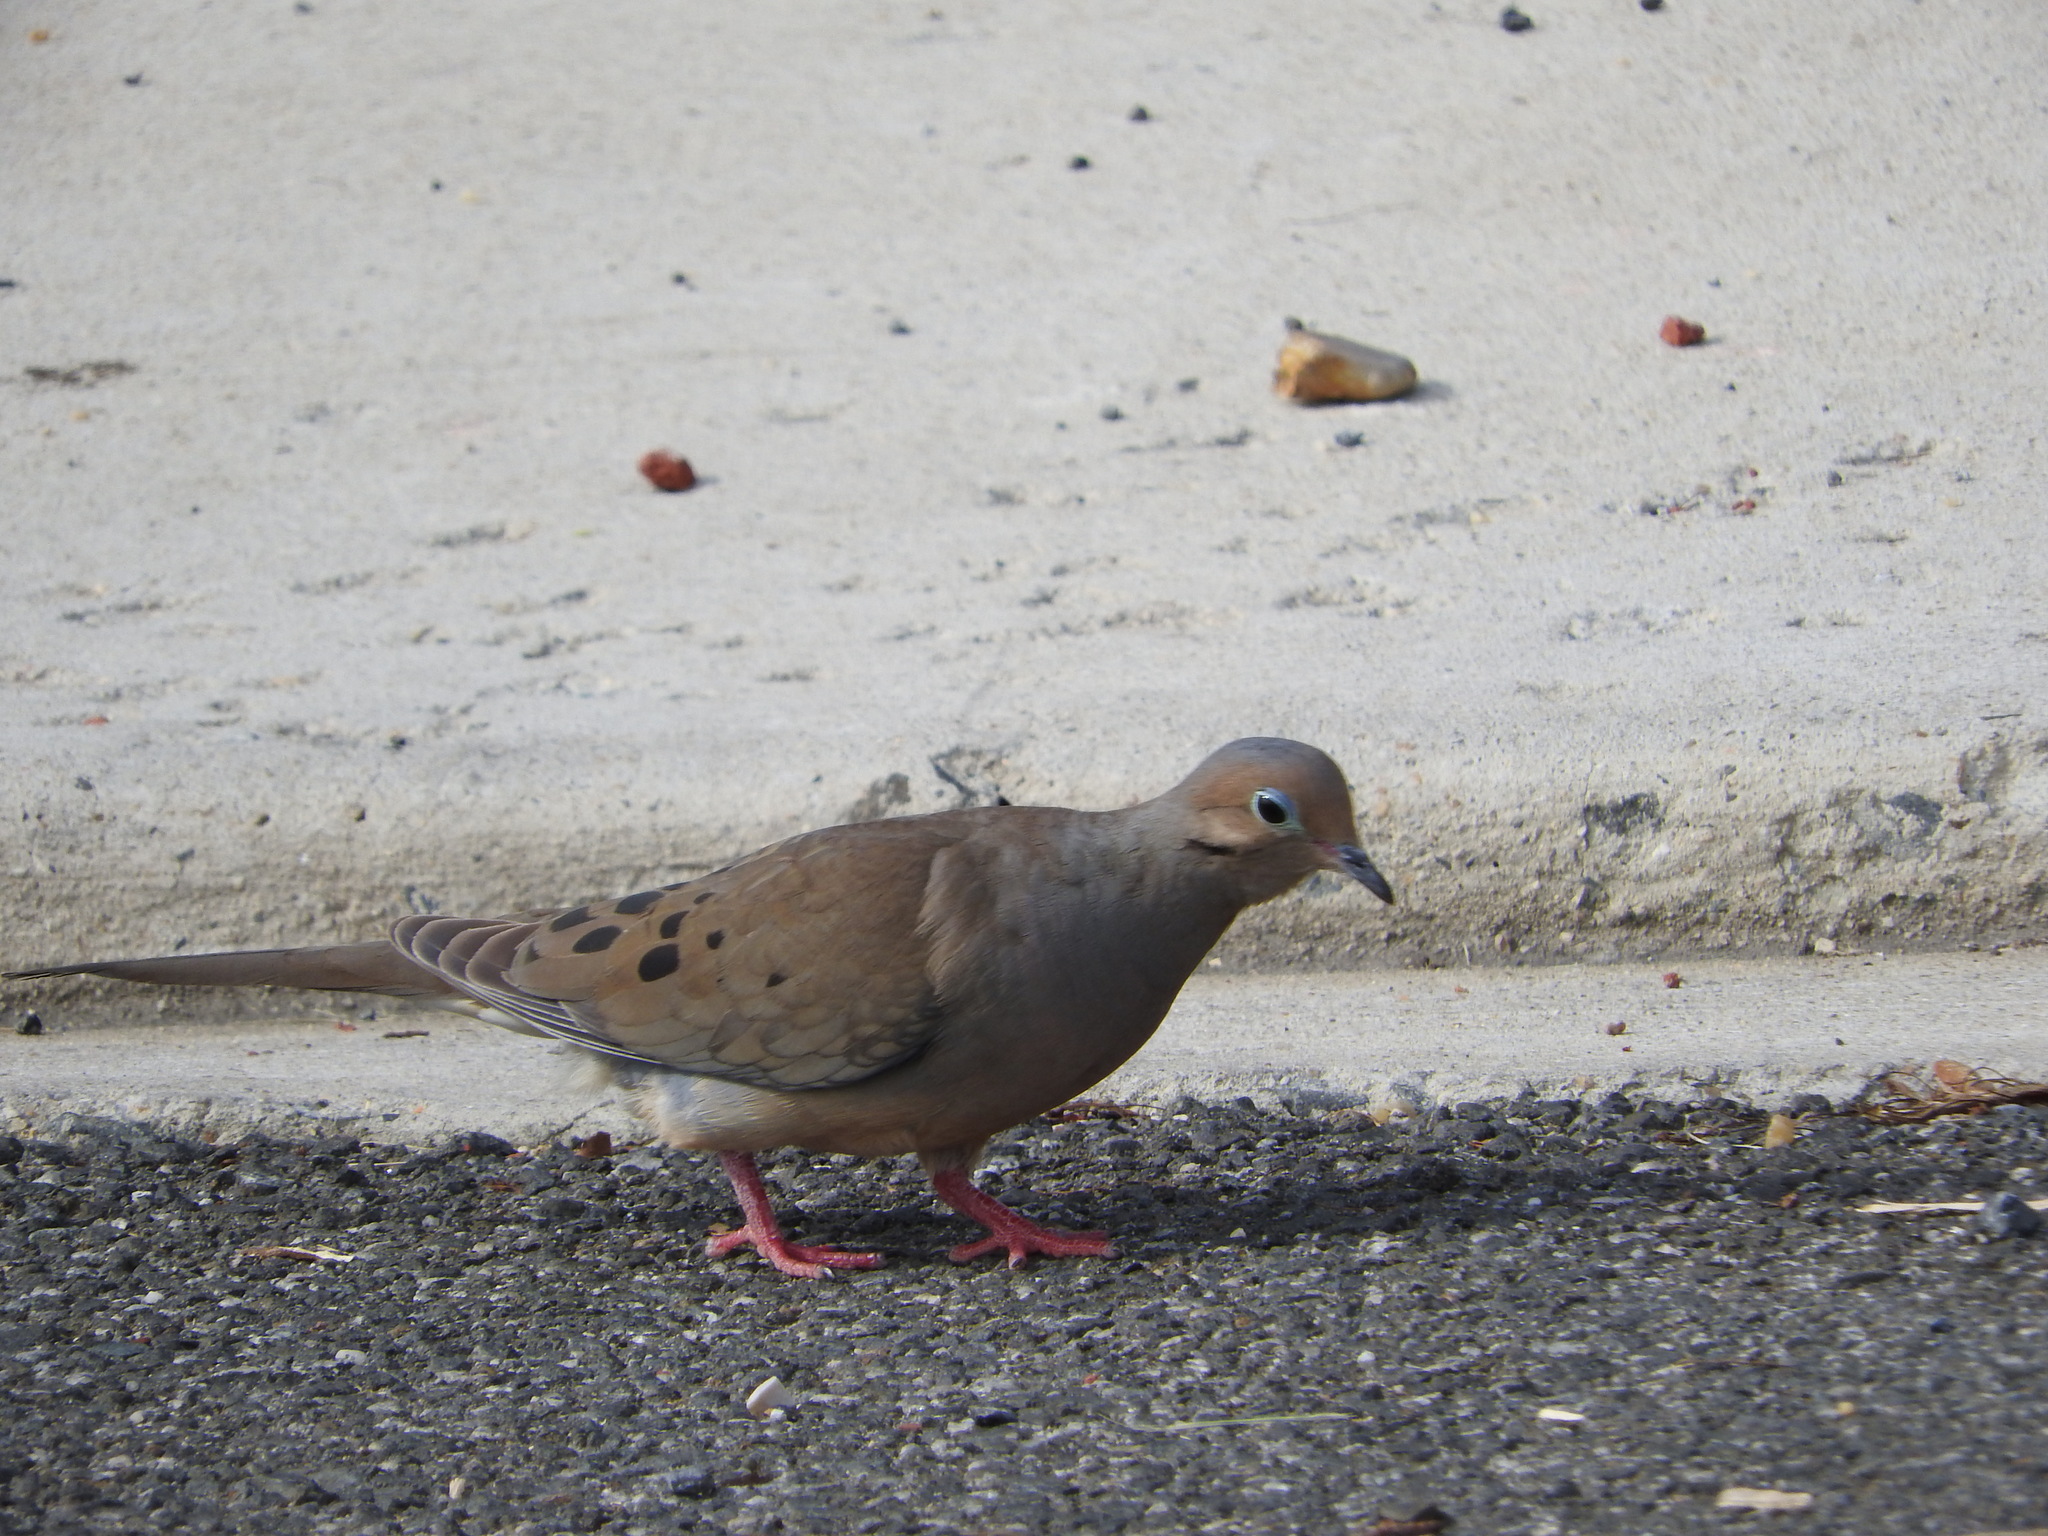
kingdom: Animalia
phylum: Chordata
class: Aves
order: Columbiformes
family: Columbidae
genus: Zenaida
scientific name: Zenaida macroura
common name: Mourning dove
